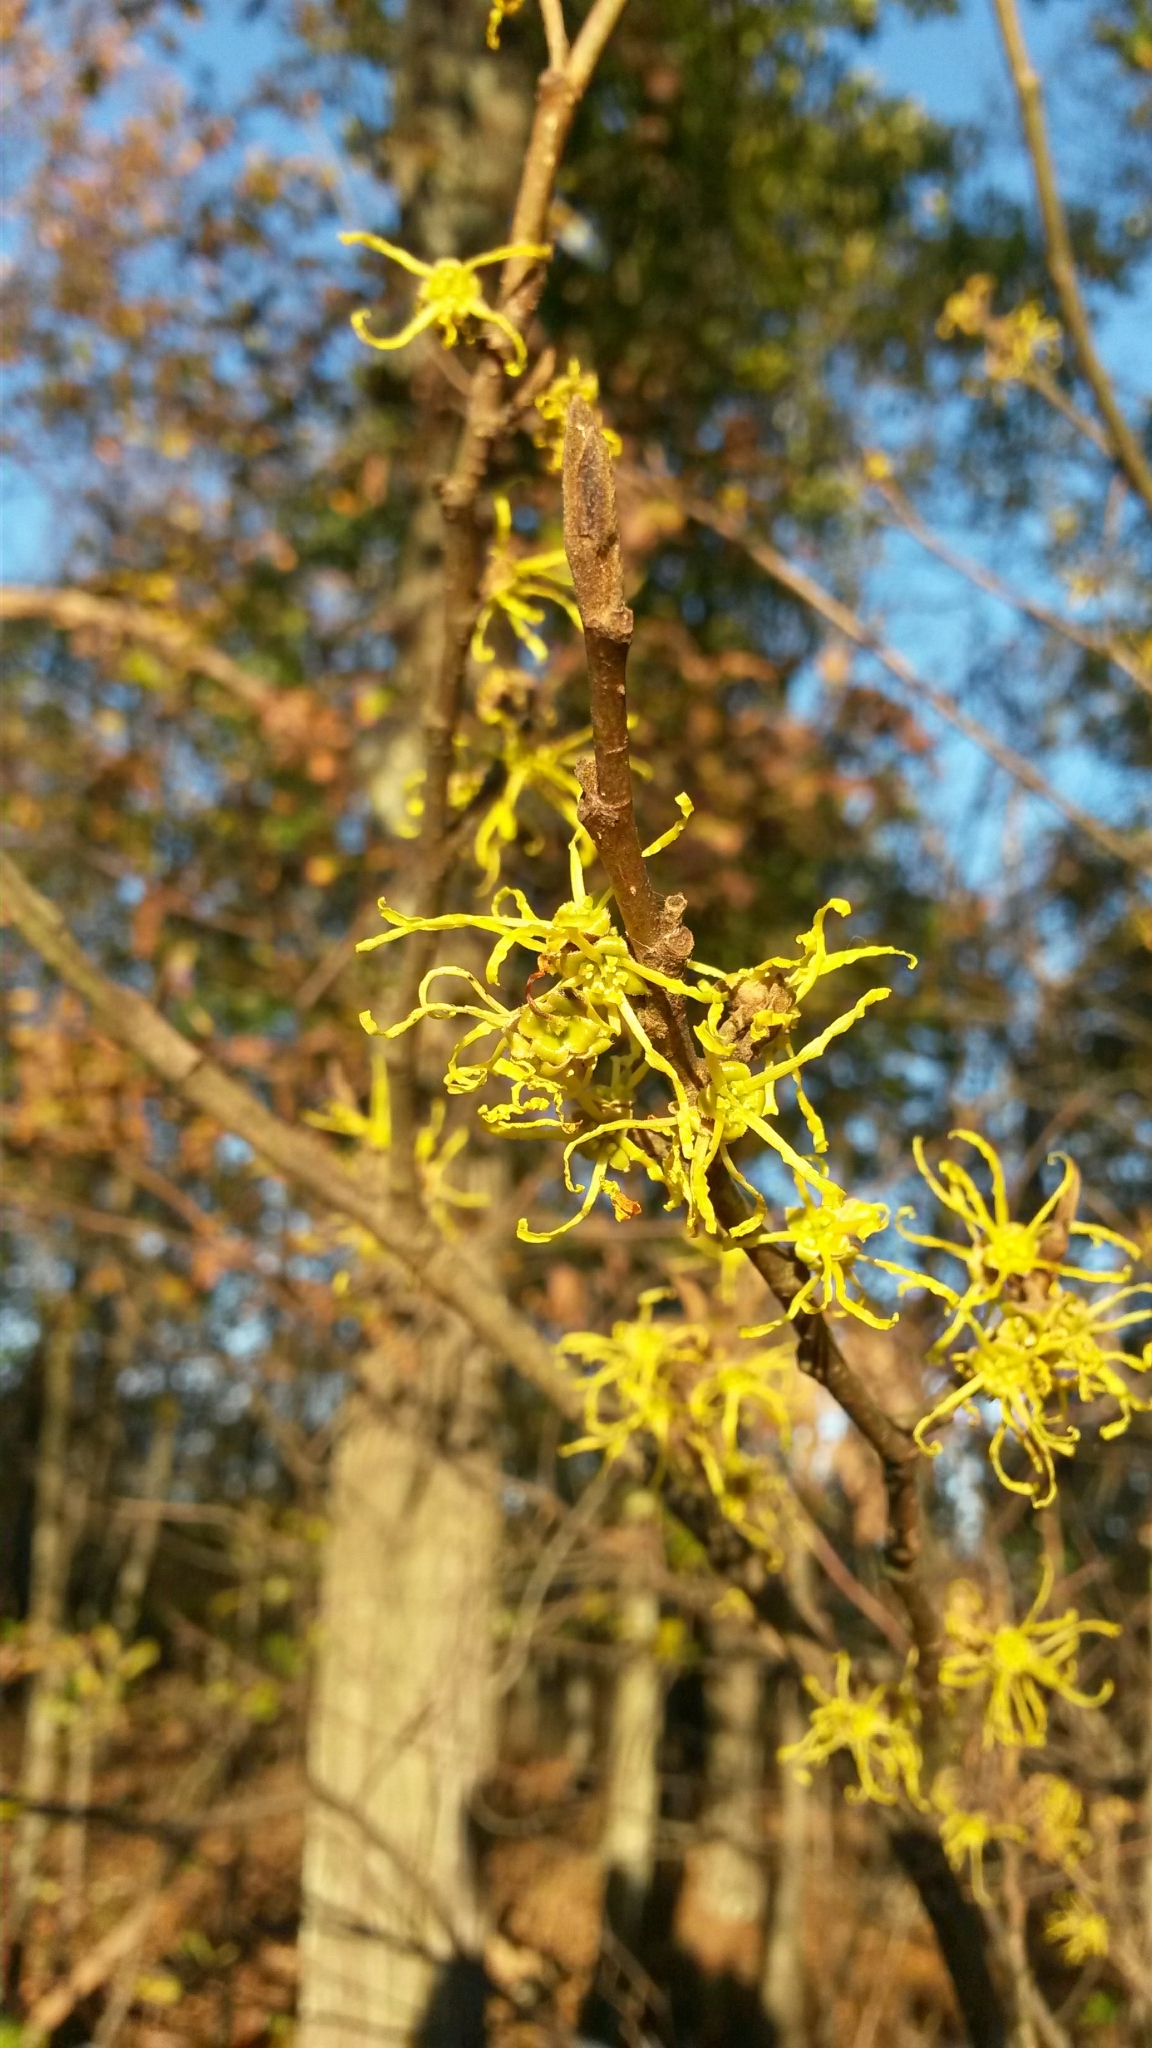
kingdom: Plantae
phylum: Tracheophyta
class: Magnoliopsida
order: Saxifragales
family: Hamamelidaceae
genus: Hamamelis
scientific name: Hamamelis virginiana
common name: Witch-hazel
